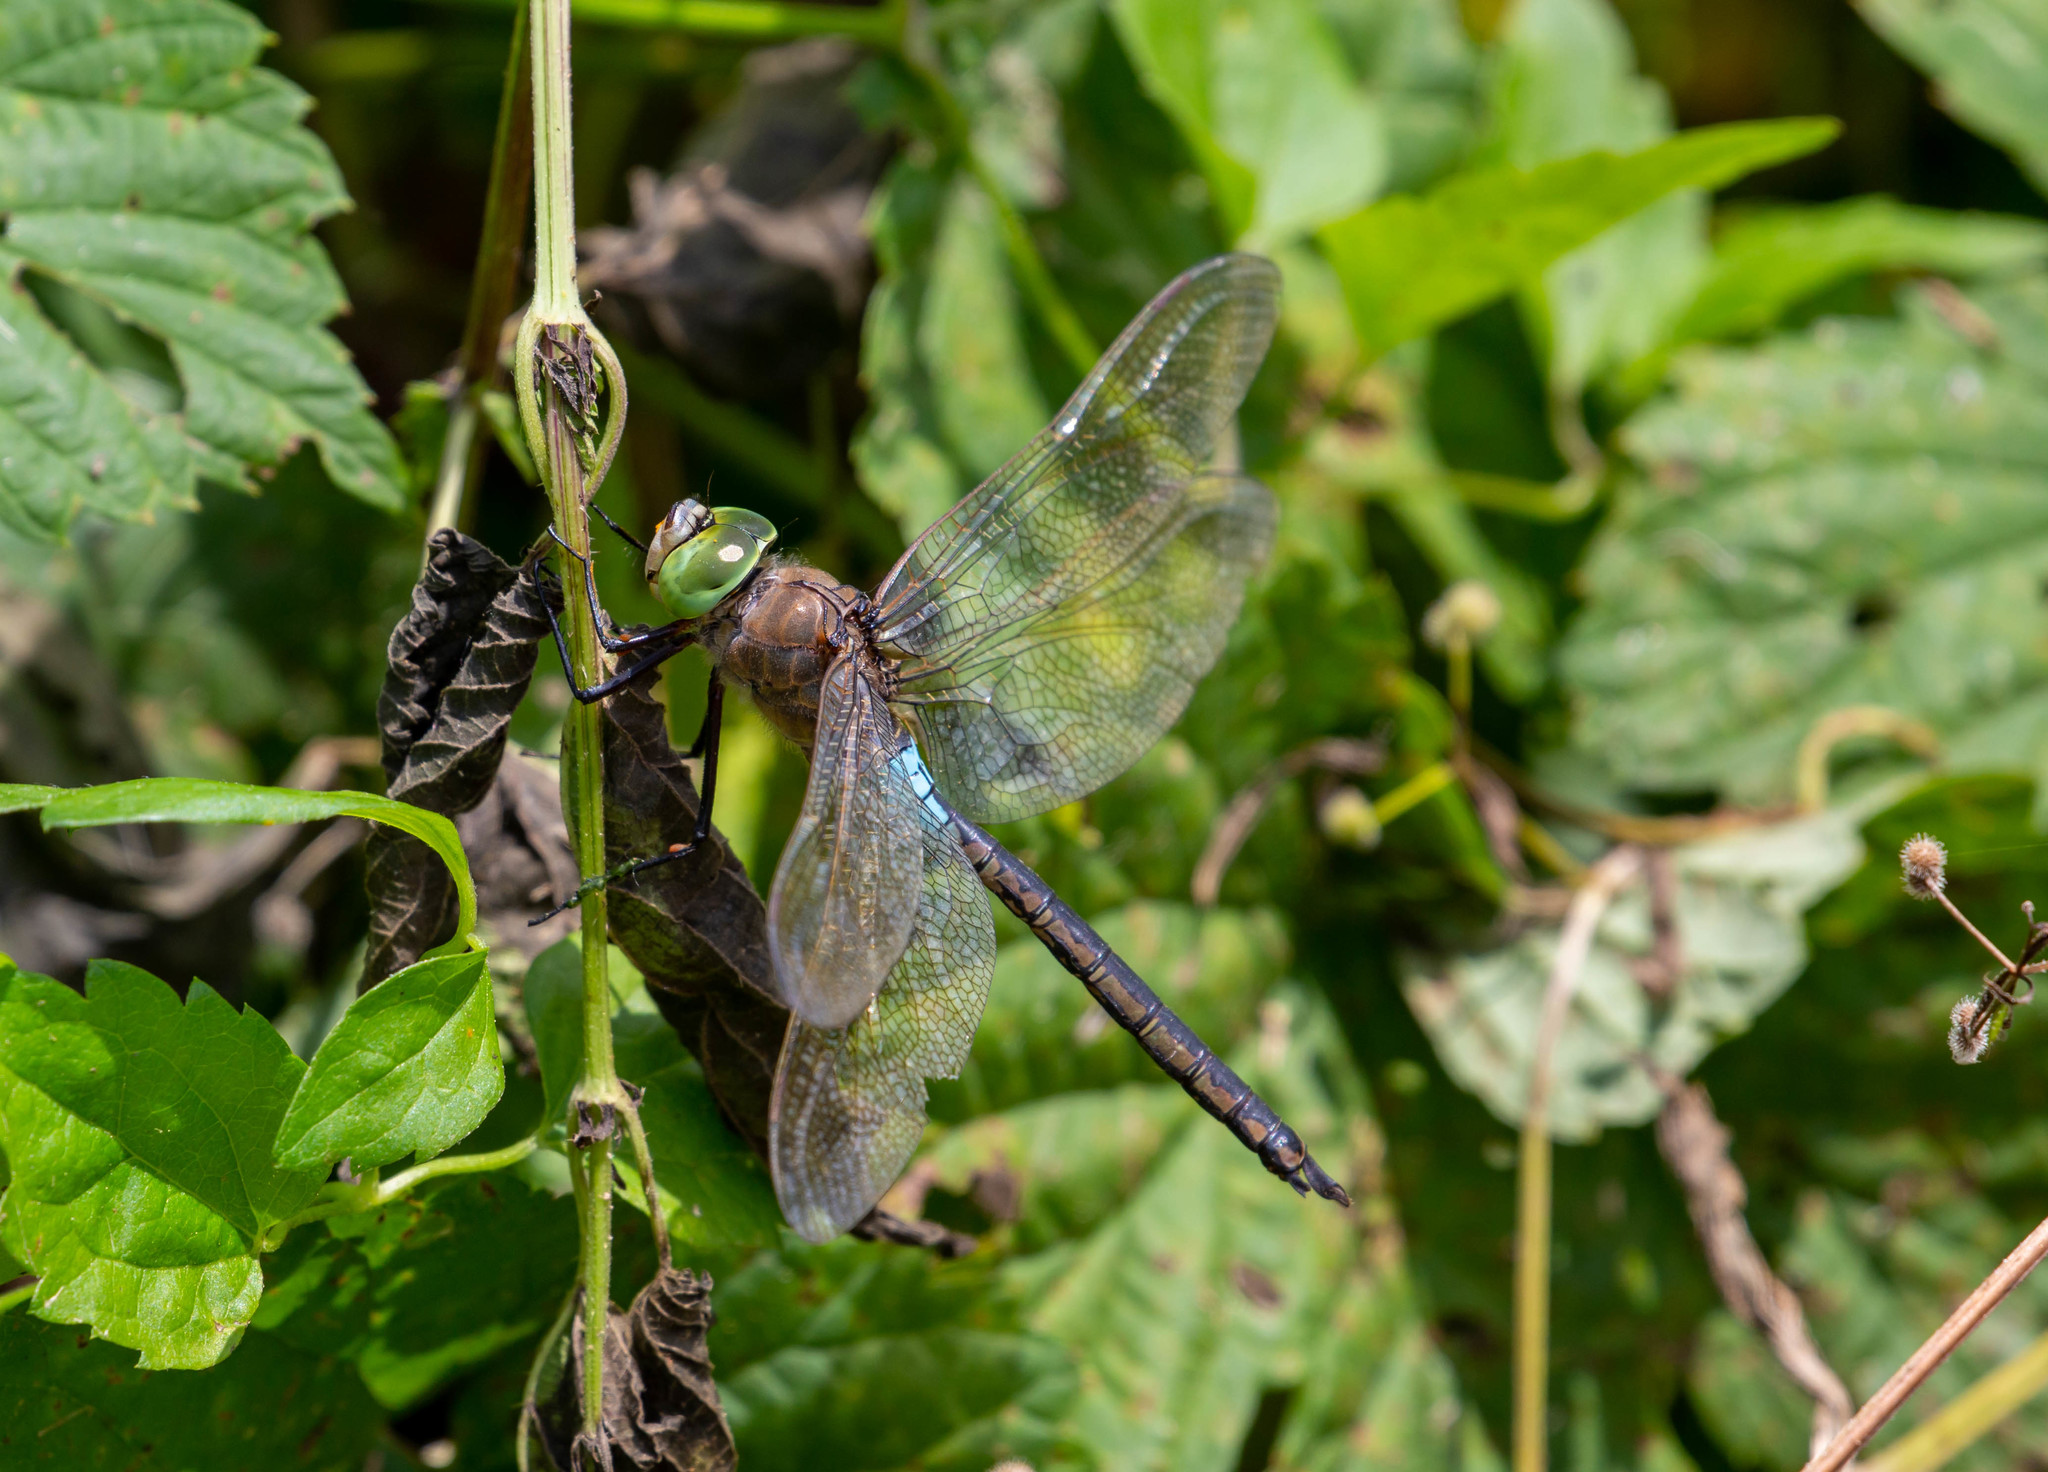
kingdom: Animalia
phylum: Arthropoda
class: Insecta
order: Odonata
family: Aeshnidae
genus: Anax
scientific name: Anax parthenope
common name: Lesser emperor
